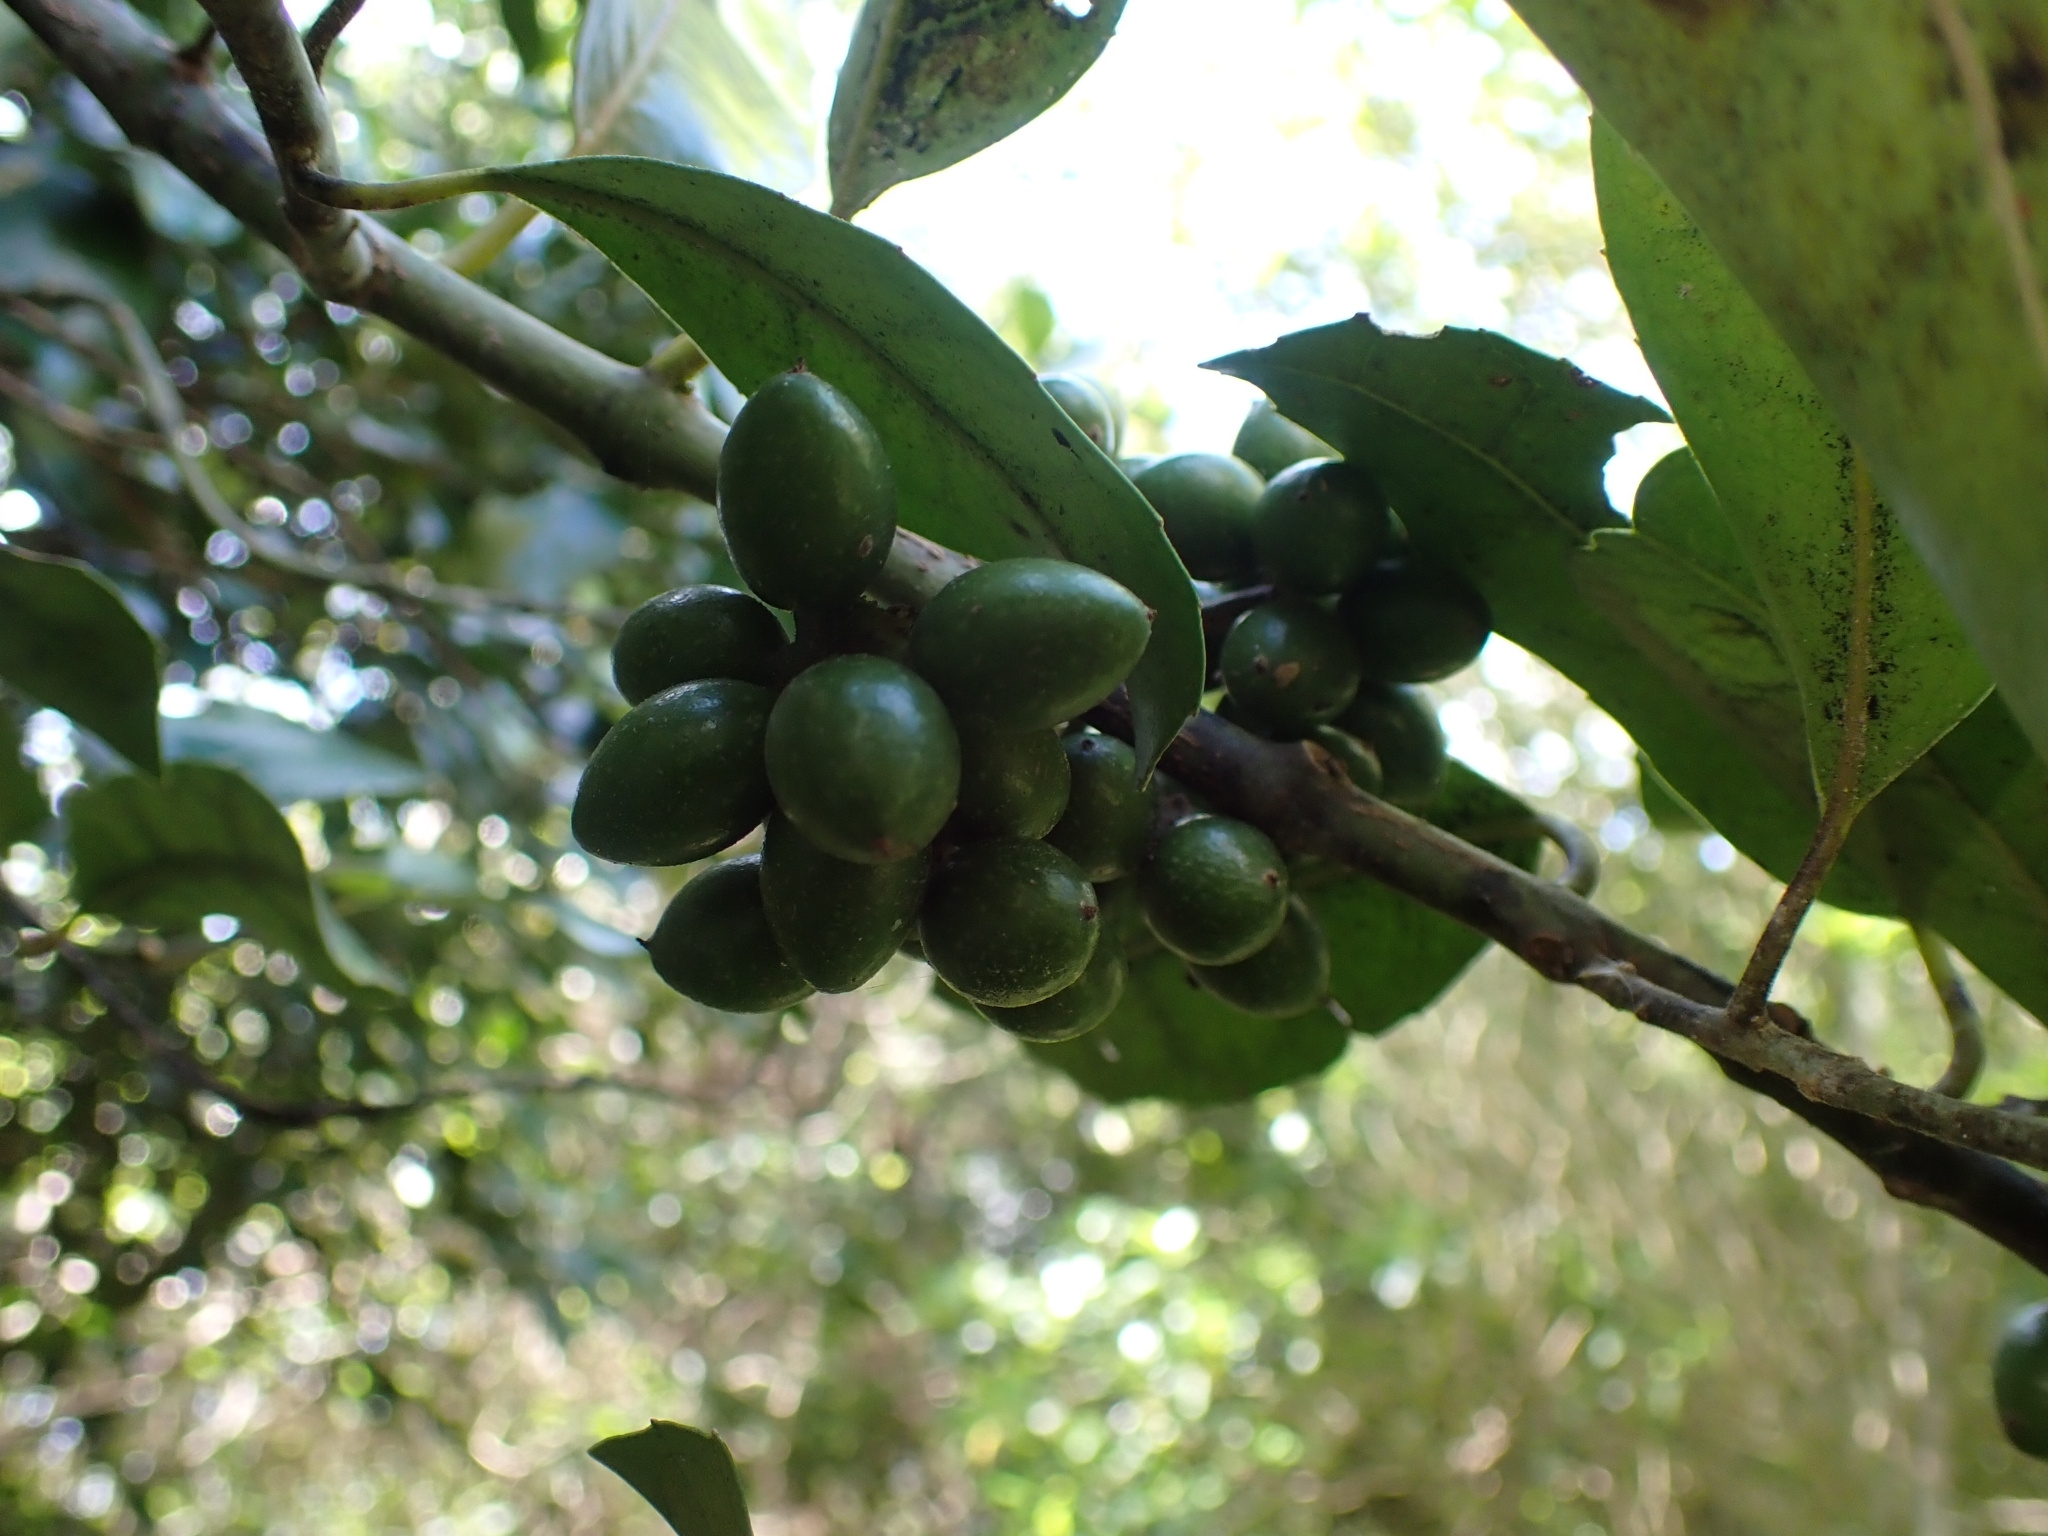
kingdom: Plantae
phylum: Tracheophyta
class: Magnoliopsida
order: Laurales
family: Monimiaceae
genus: Hedycarya
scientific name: Hedycarya arborea
